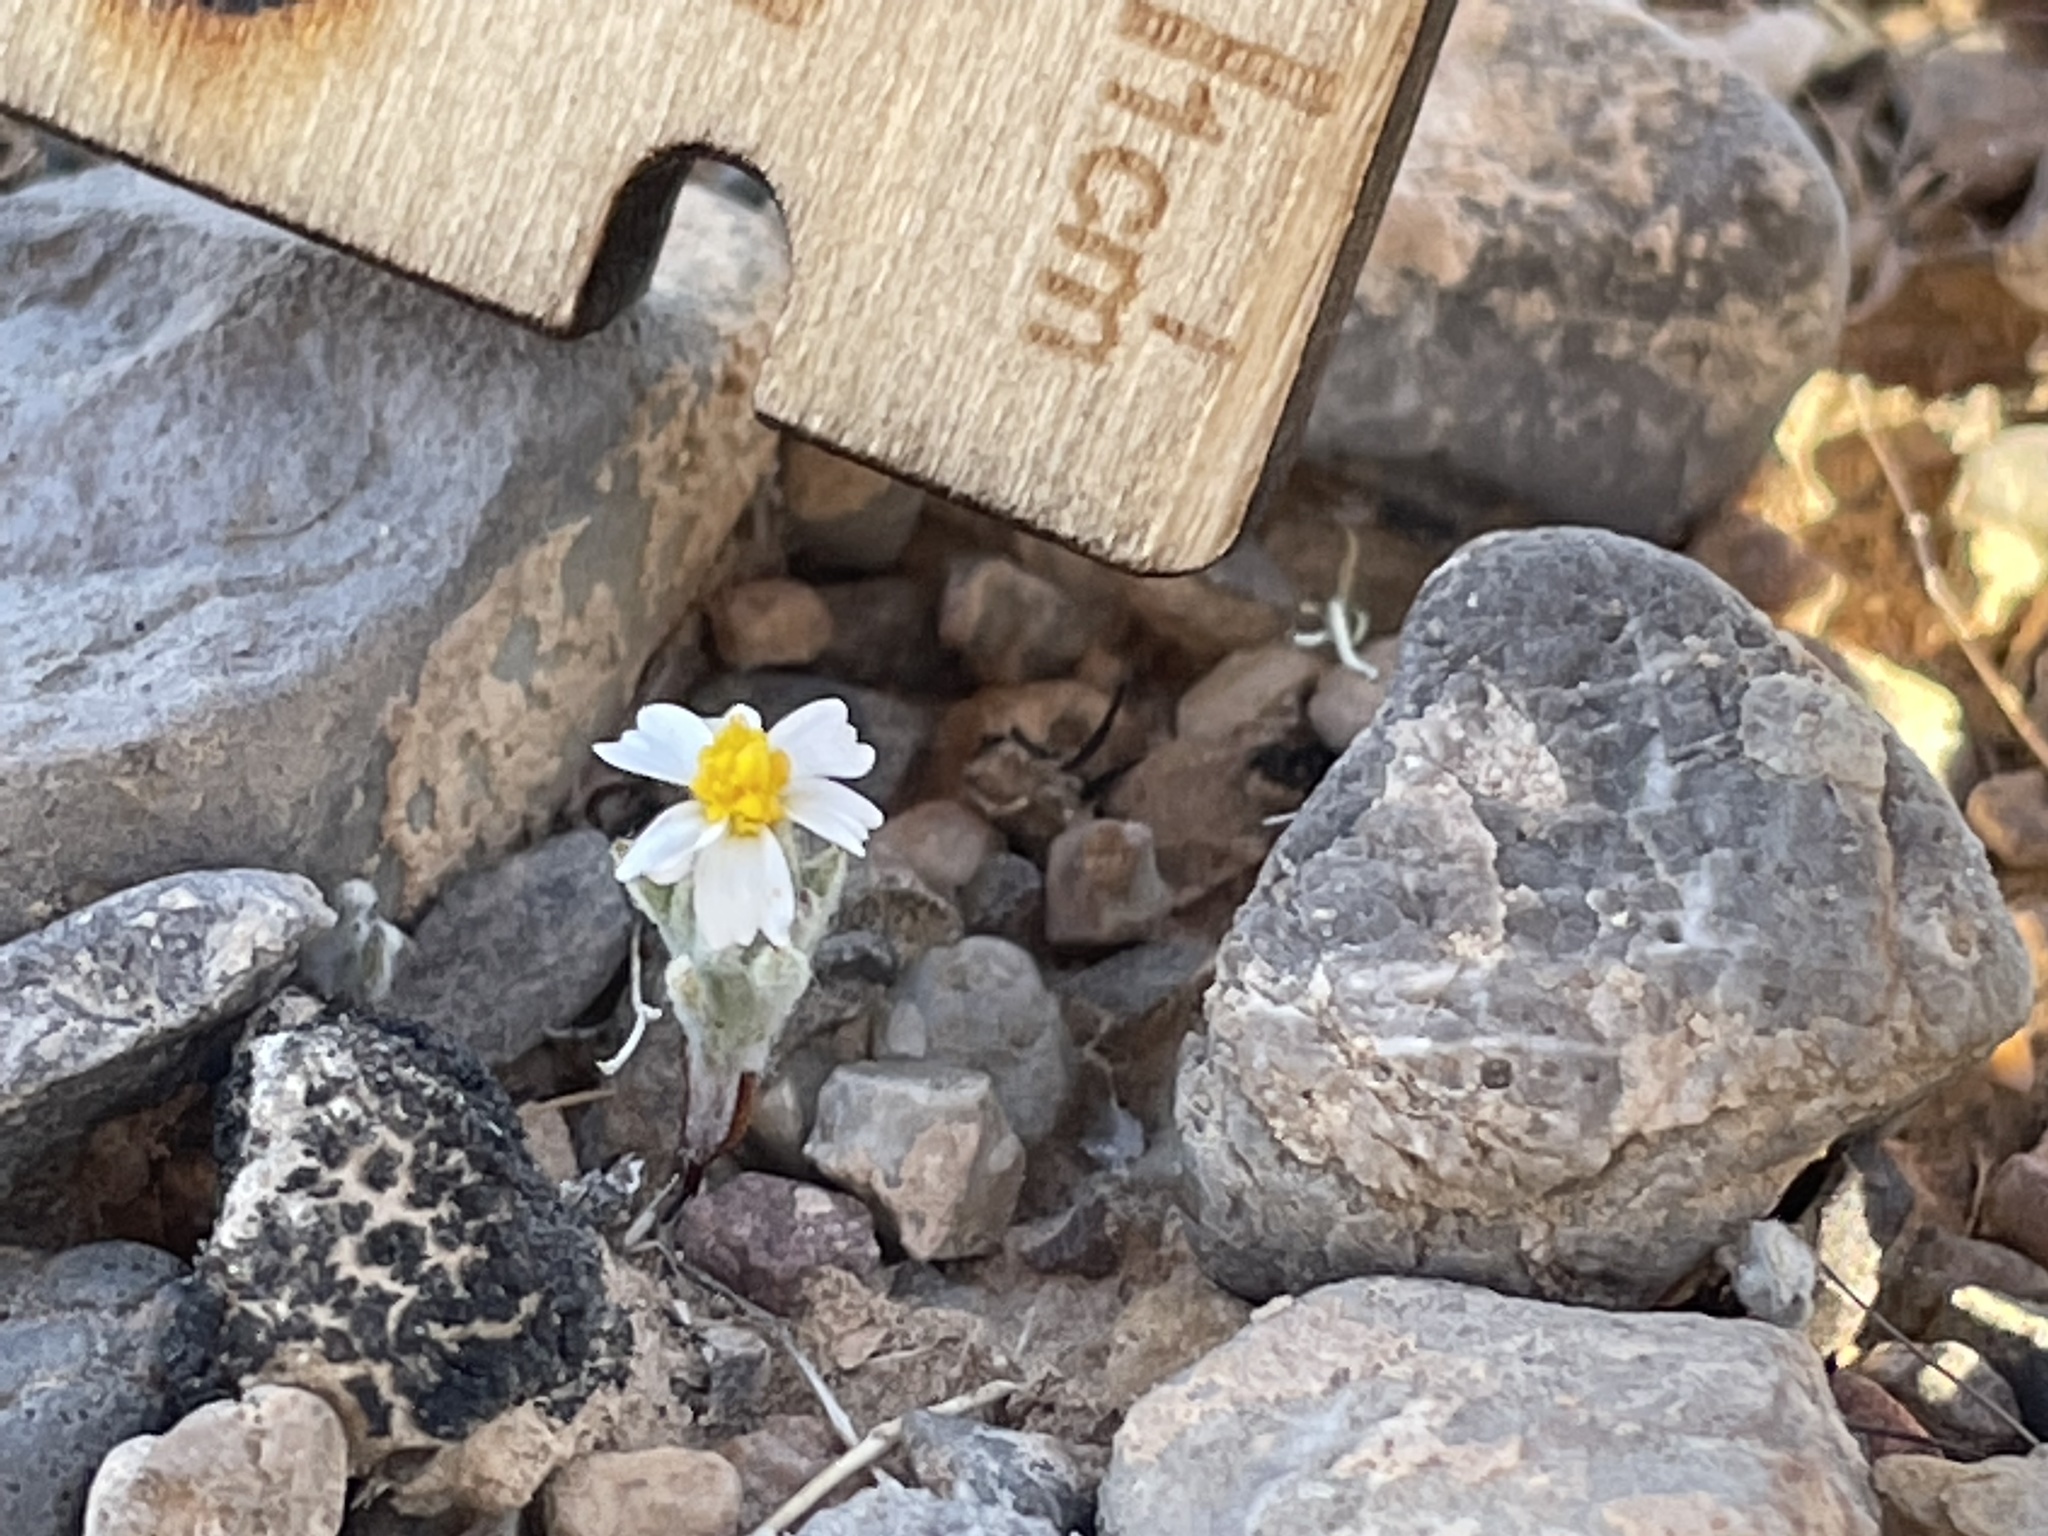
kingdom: Plantae
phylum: Tracheophyta
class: Magnoliopsida
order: Asterales
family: Asteraceae
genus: Eriophyllum
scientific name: Eriophyllum lanosum
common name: White easter-bonnets
